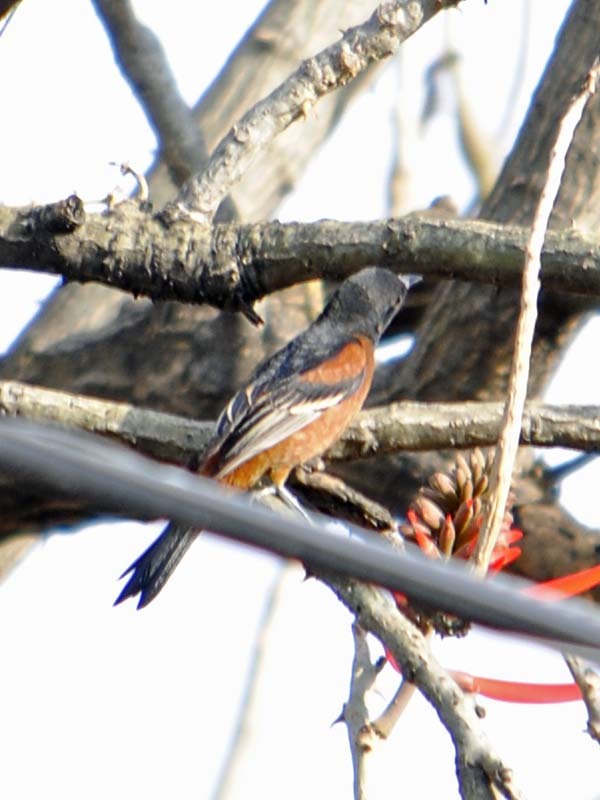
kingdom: Animalia
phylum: Chordata
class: Aves
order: Passeriformes
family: Icteridae
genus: Icterus
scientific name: Icterus spurius
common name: Orchard oriole
